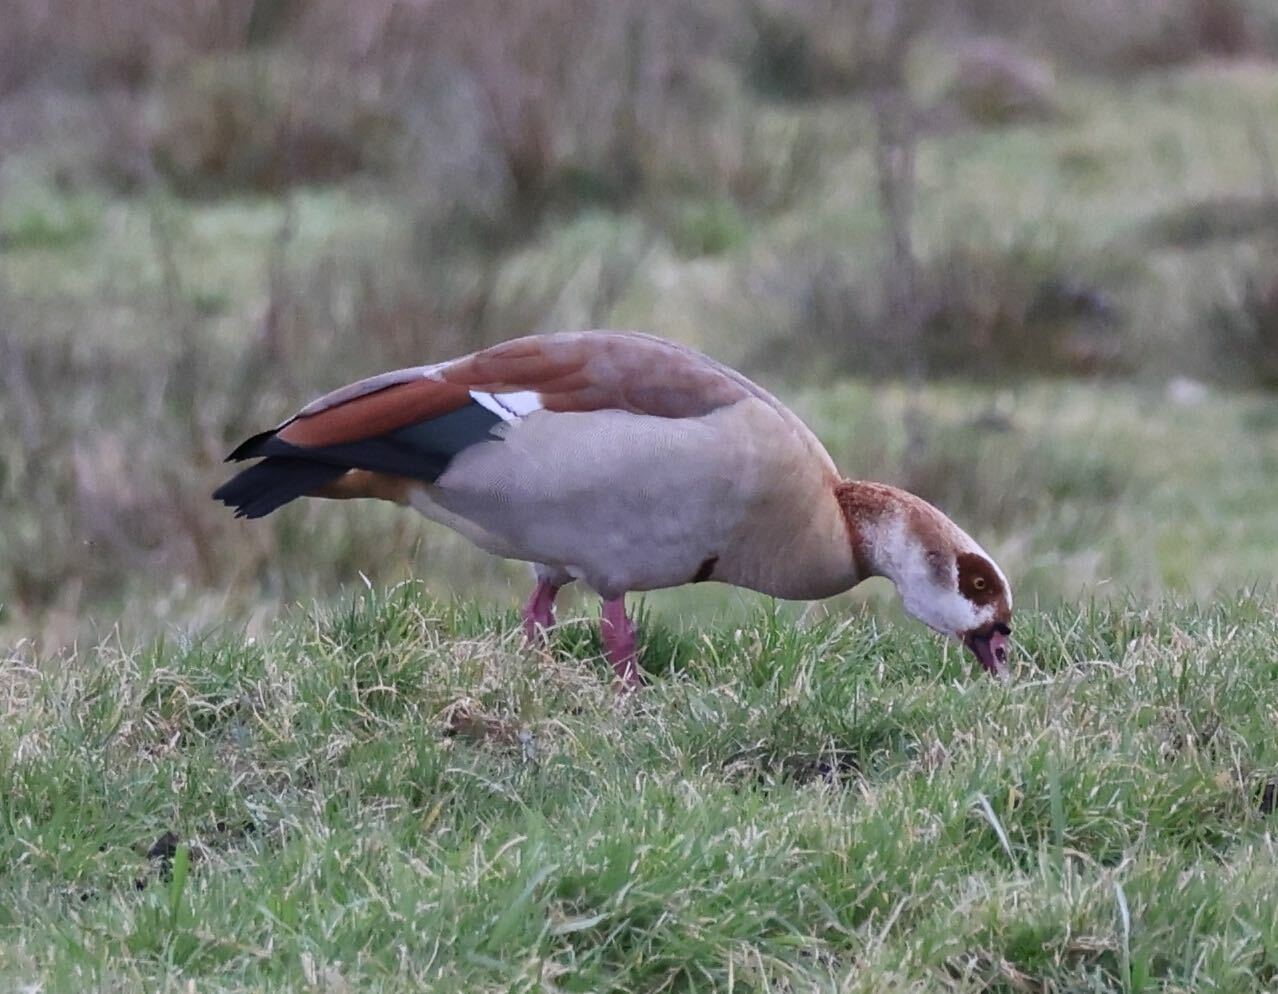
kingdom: Animalia
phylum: Chordata
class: Aves
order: Anseriformes
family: Anatidae
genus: Alopochen
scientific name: Alopochen aegyptiaca
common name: Egyptian goose
